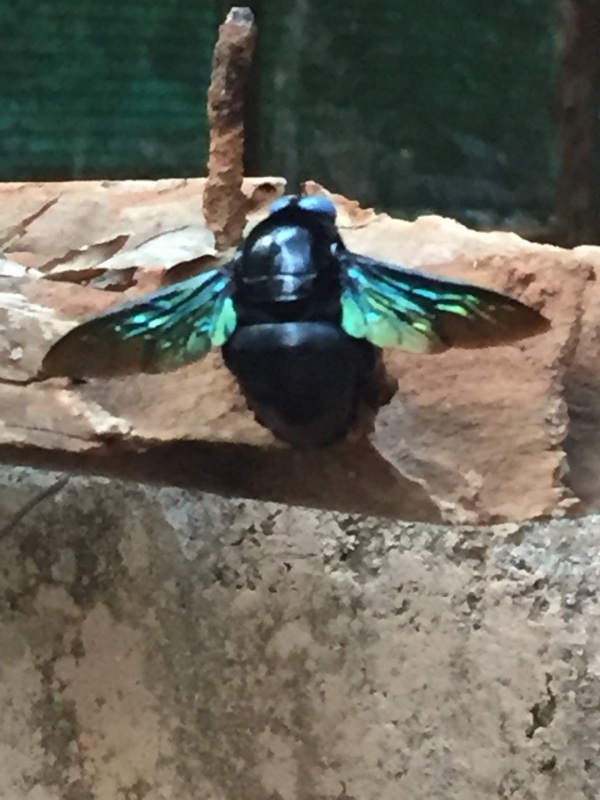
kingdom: Animalia
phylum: Arthropoda
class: Insecta
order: Hymenoptera
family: Apidae
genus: Xylocopa
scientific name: Xylocopa tenuiscapa
